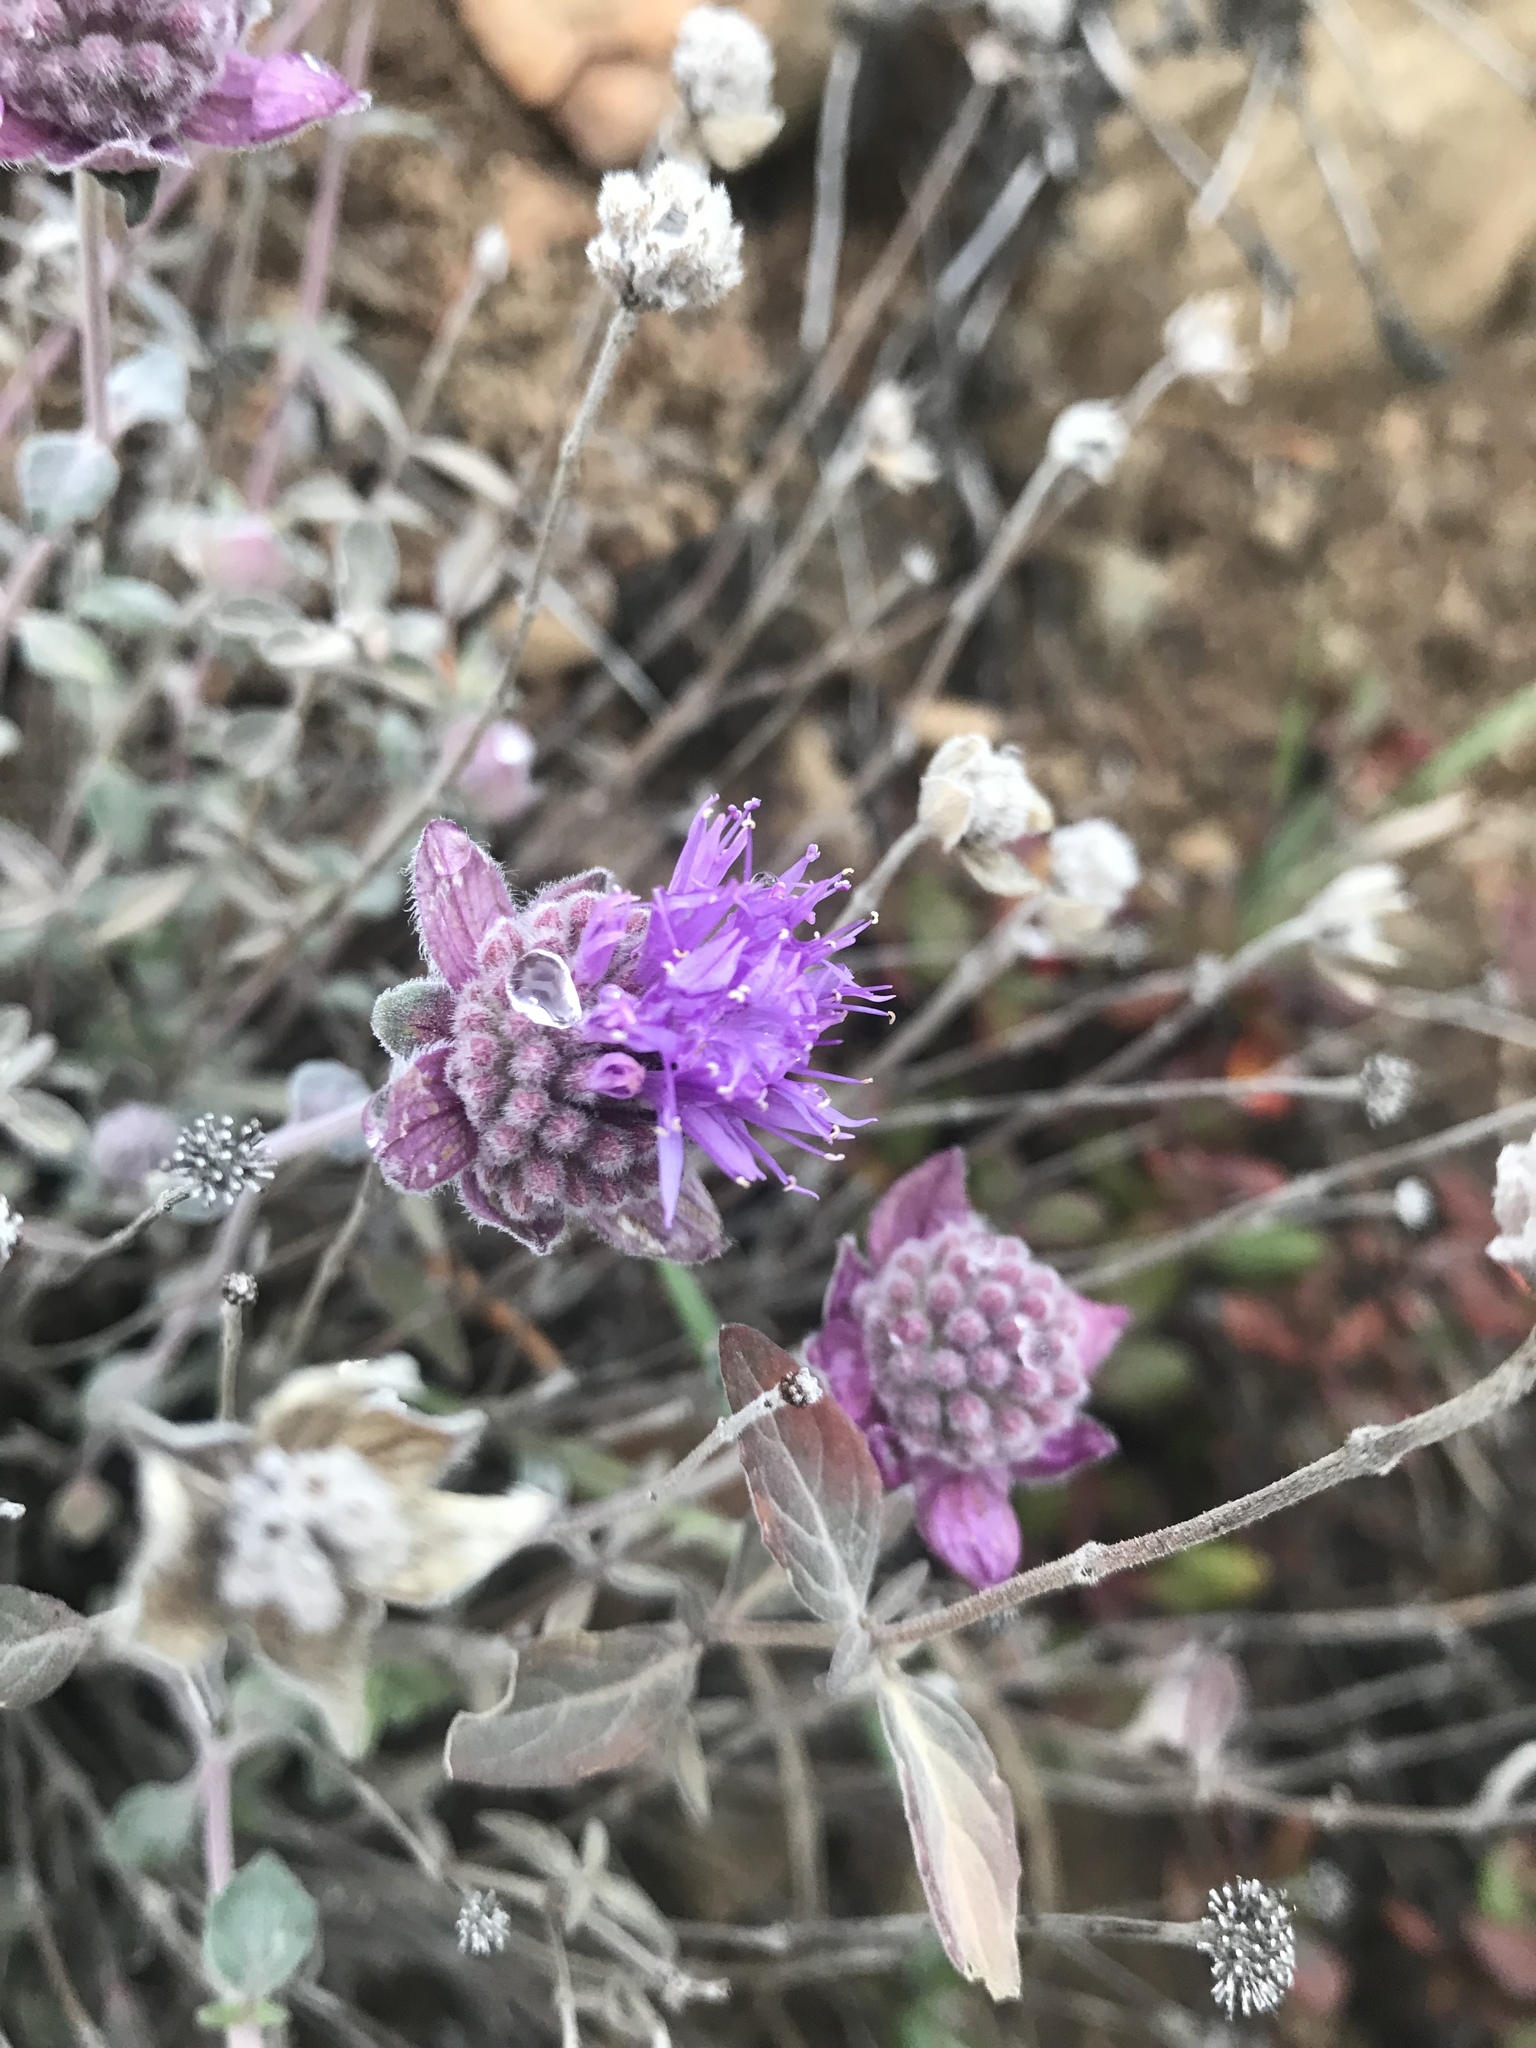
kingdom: Plantae
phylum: Tracheophyta
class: Magnoliopsida
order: Lamiales
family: Lamiaceae
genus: Monardella
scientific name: Monardella odoratissima
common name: Pacific monardella
